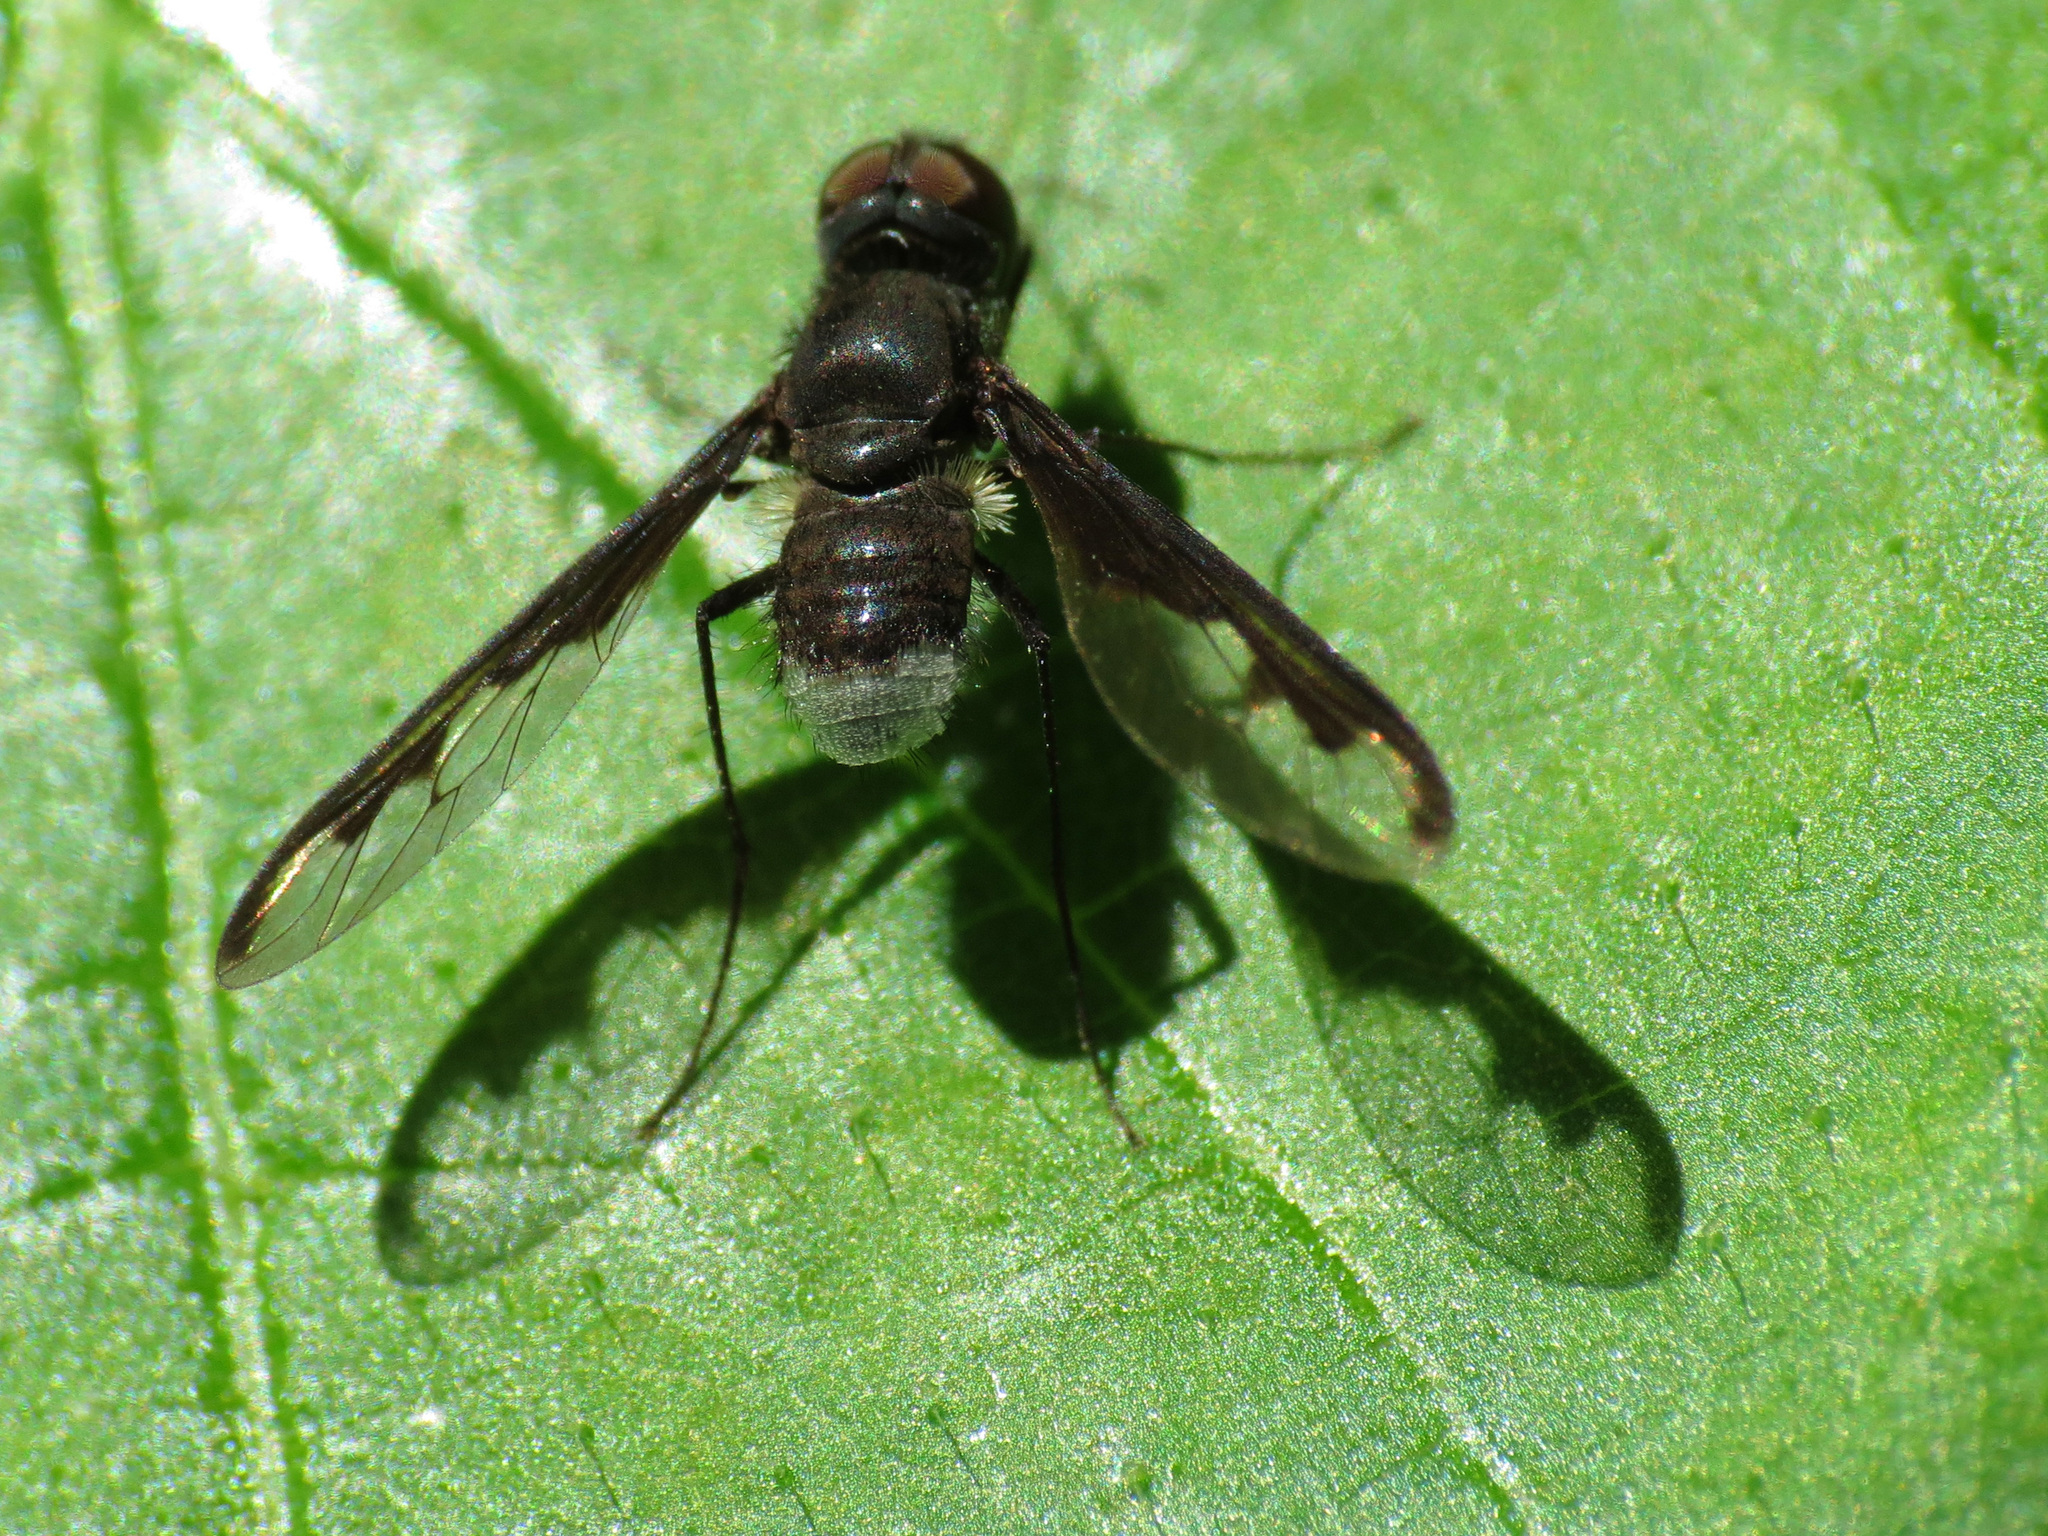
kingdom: Animalia
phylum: Arthropoda
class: Insecta
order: Diptera
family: Bombyliidae
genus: Anthrax
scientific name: Anthrax argyropygus
